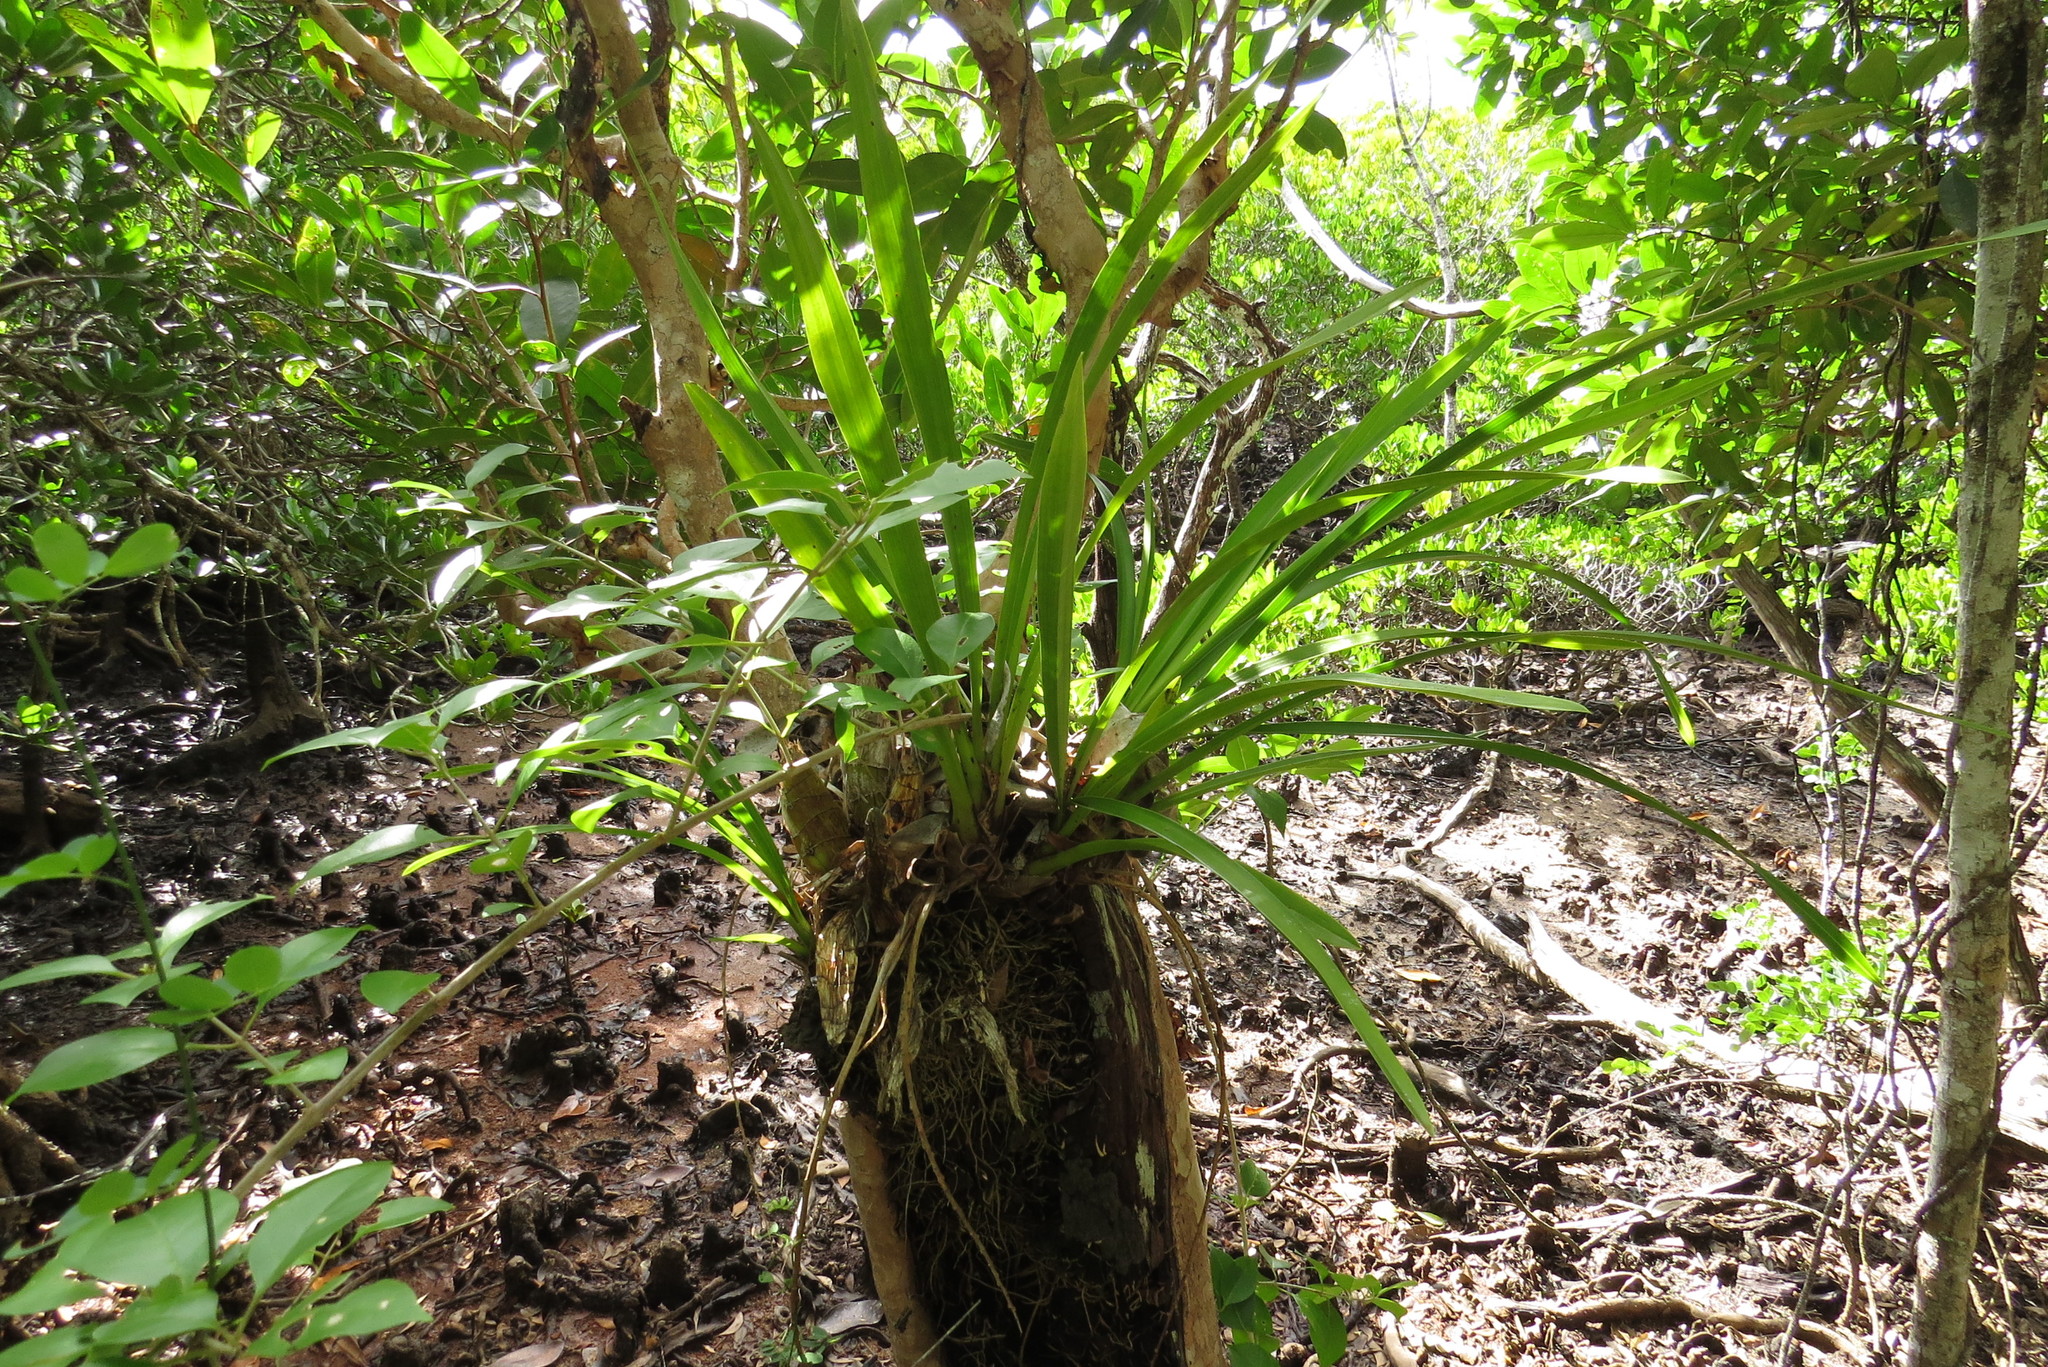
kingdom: Plantae
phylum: Tracheophyta
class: Liliopsida
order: Asparagales
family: Orchidaceae
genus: Cymbidium
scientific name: Cymbidium madidum
